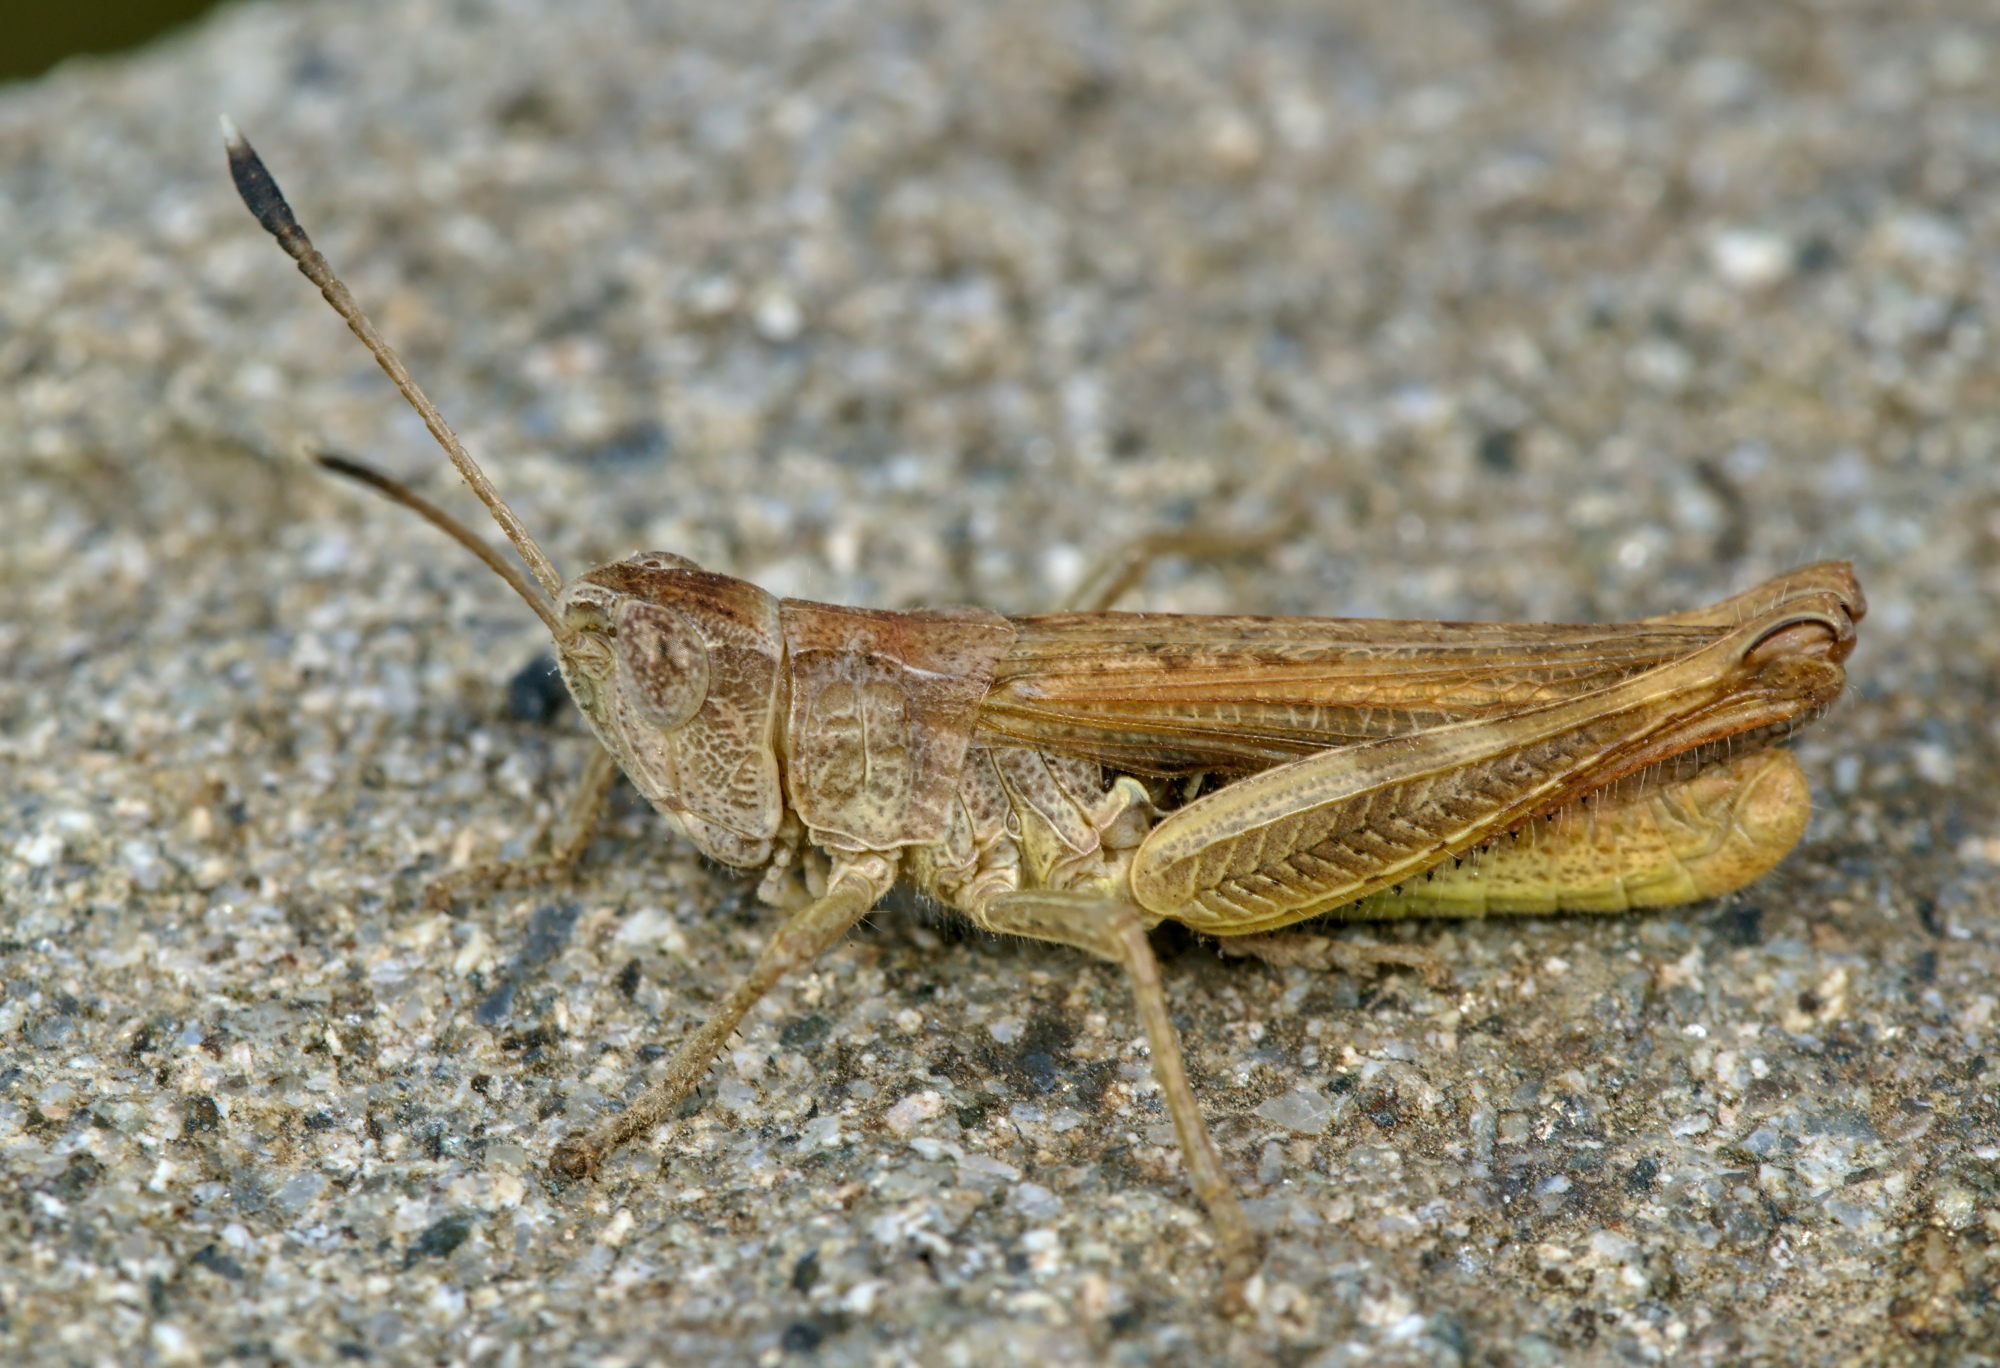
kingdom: Animalia
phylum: Arthropoda
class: Insecta
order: Orthoptera
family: Acrididae
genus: Gomphocerippus
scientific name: Gomphocerippus rufus
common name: Rufous grasshopper
